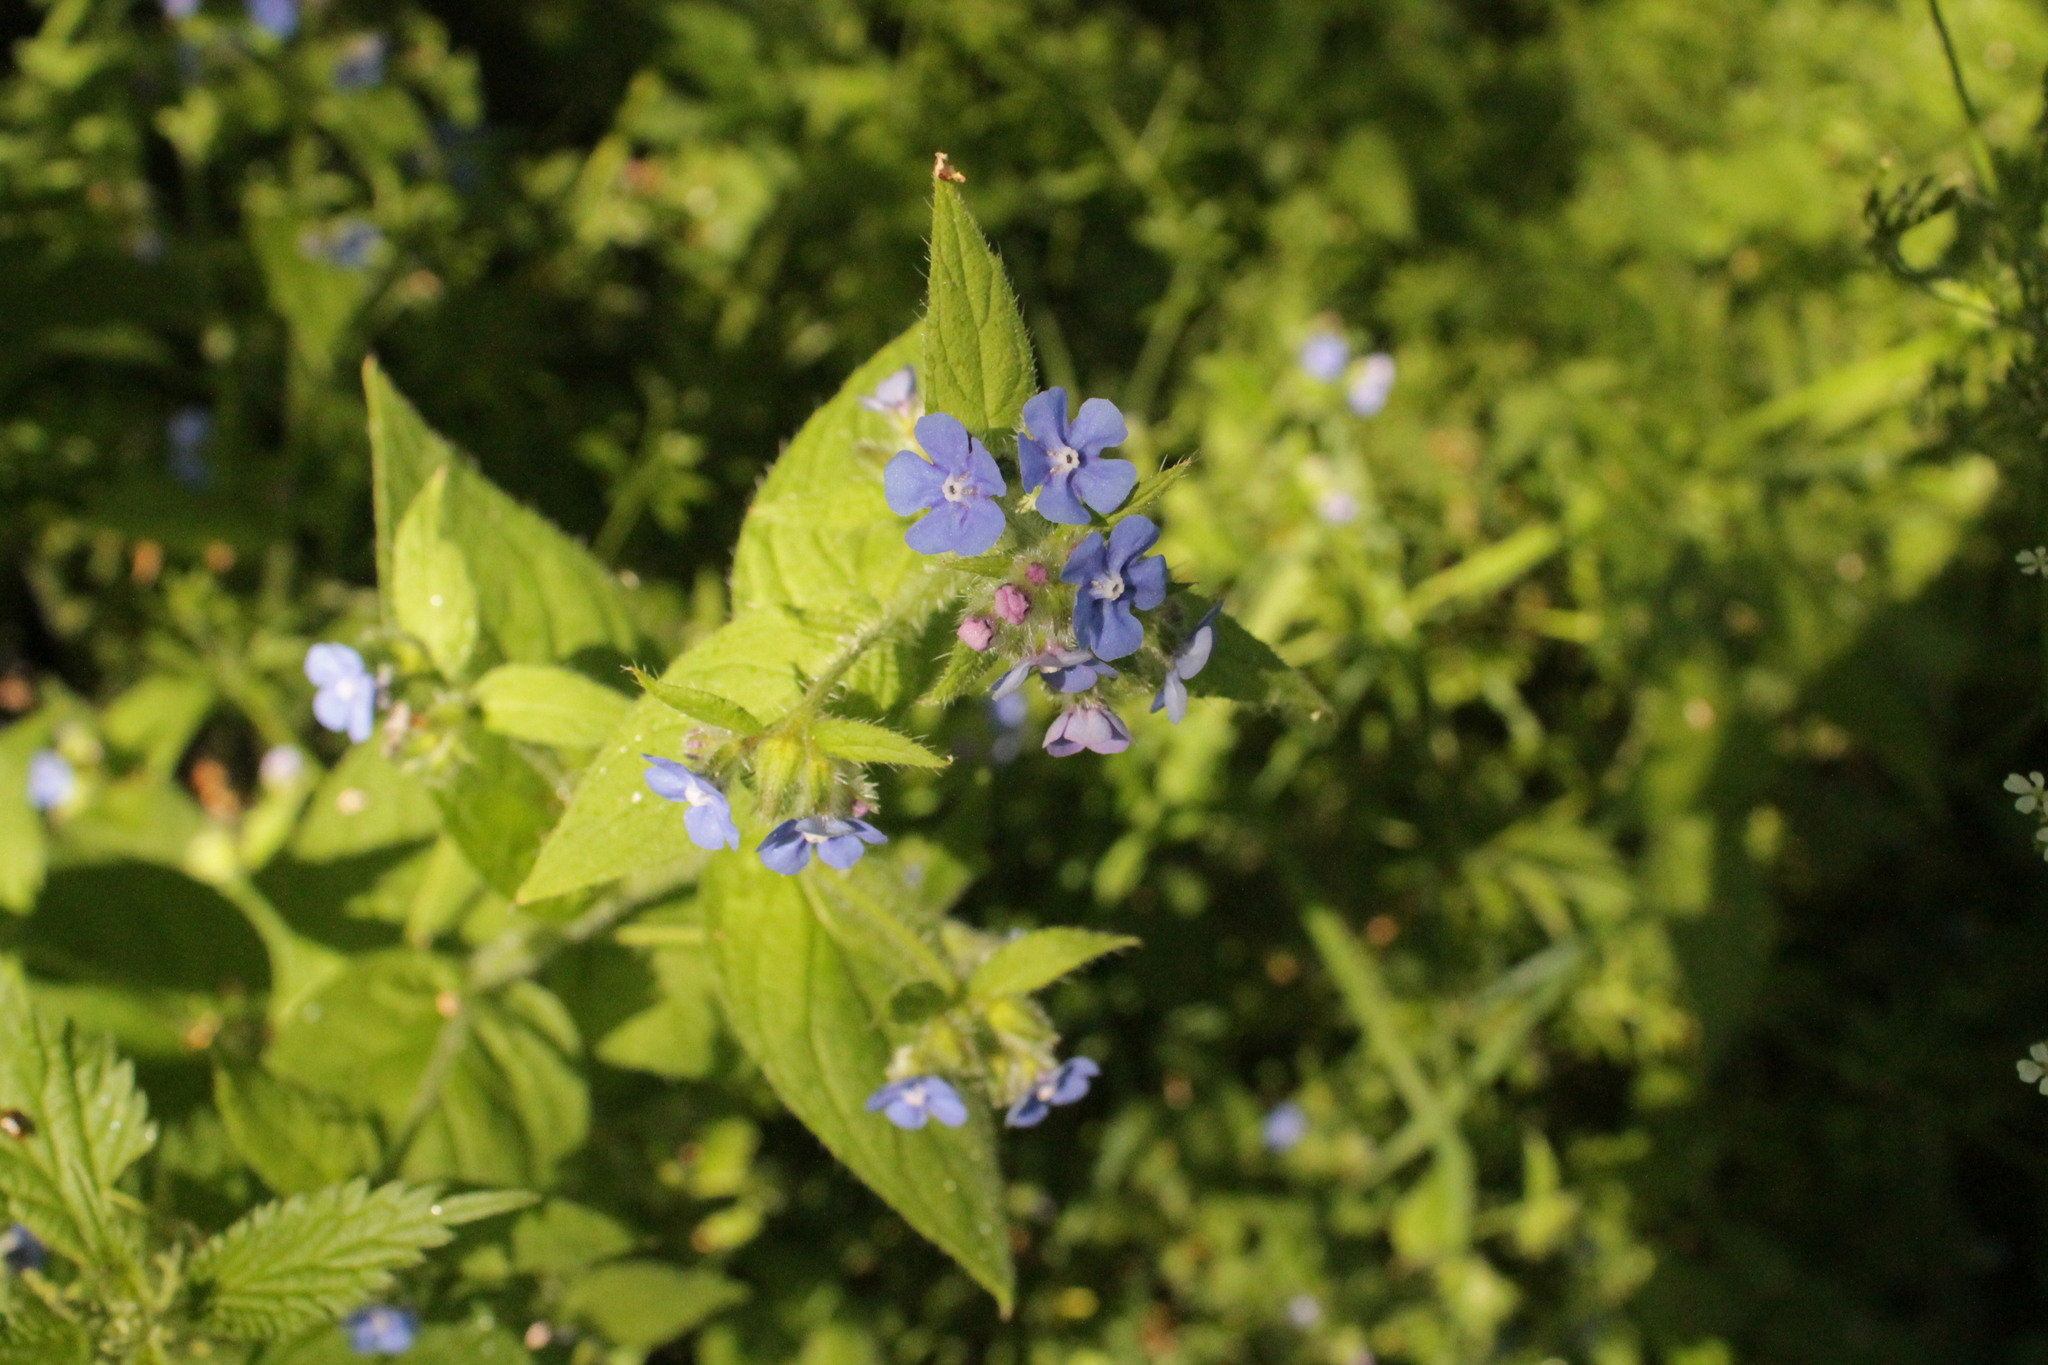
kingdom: Plantae
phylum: Tracheophyta
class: Magnoliopsida
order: Boraginales
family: Boraginaceae
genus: Pentaglottis
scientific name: Pentaglottis sempervirens
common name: Green alkanet
